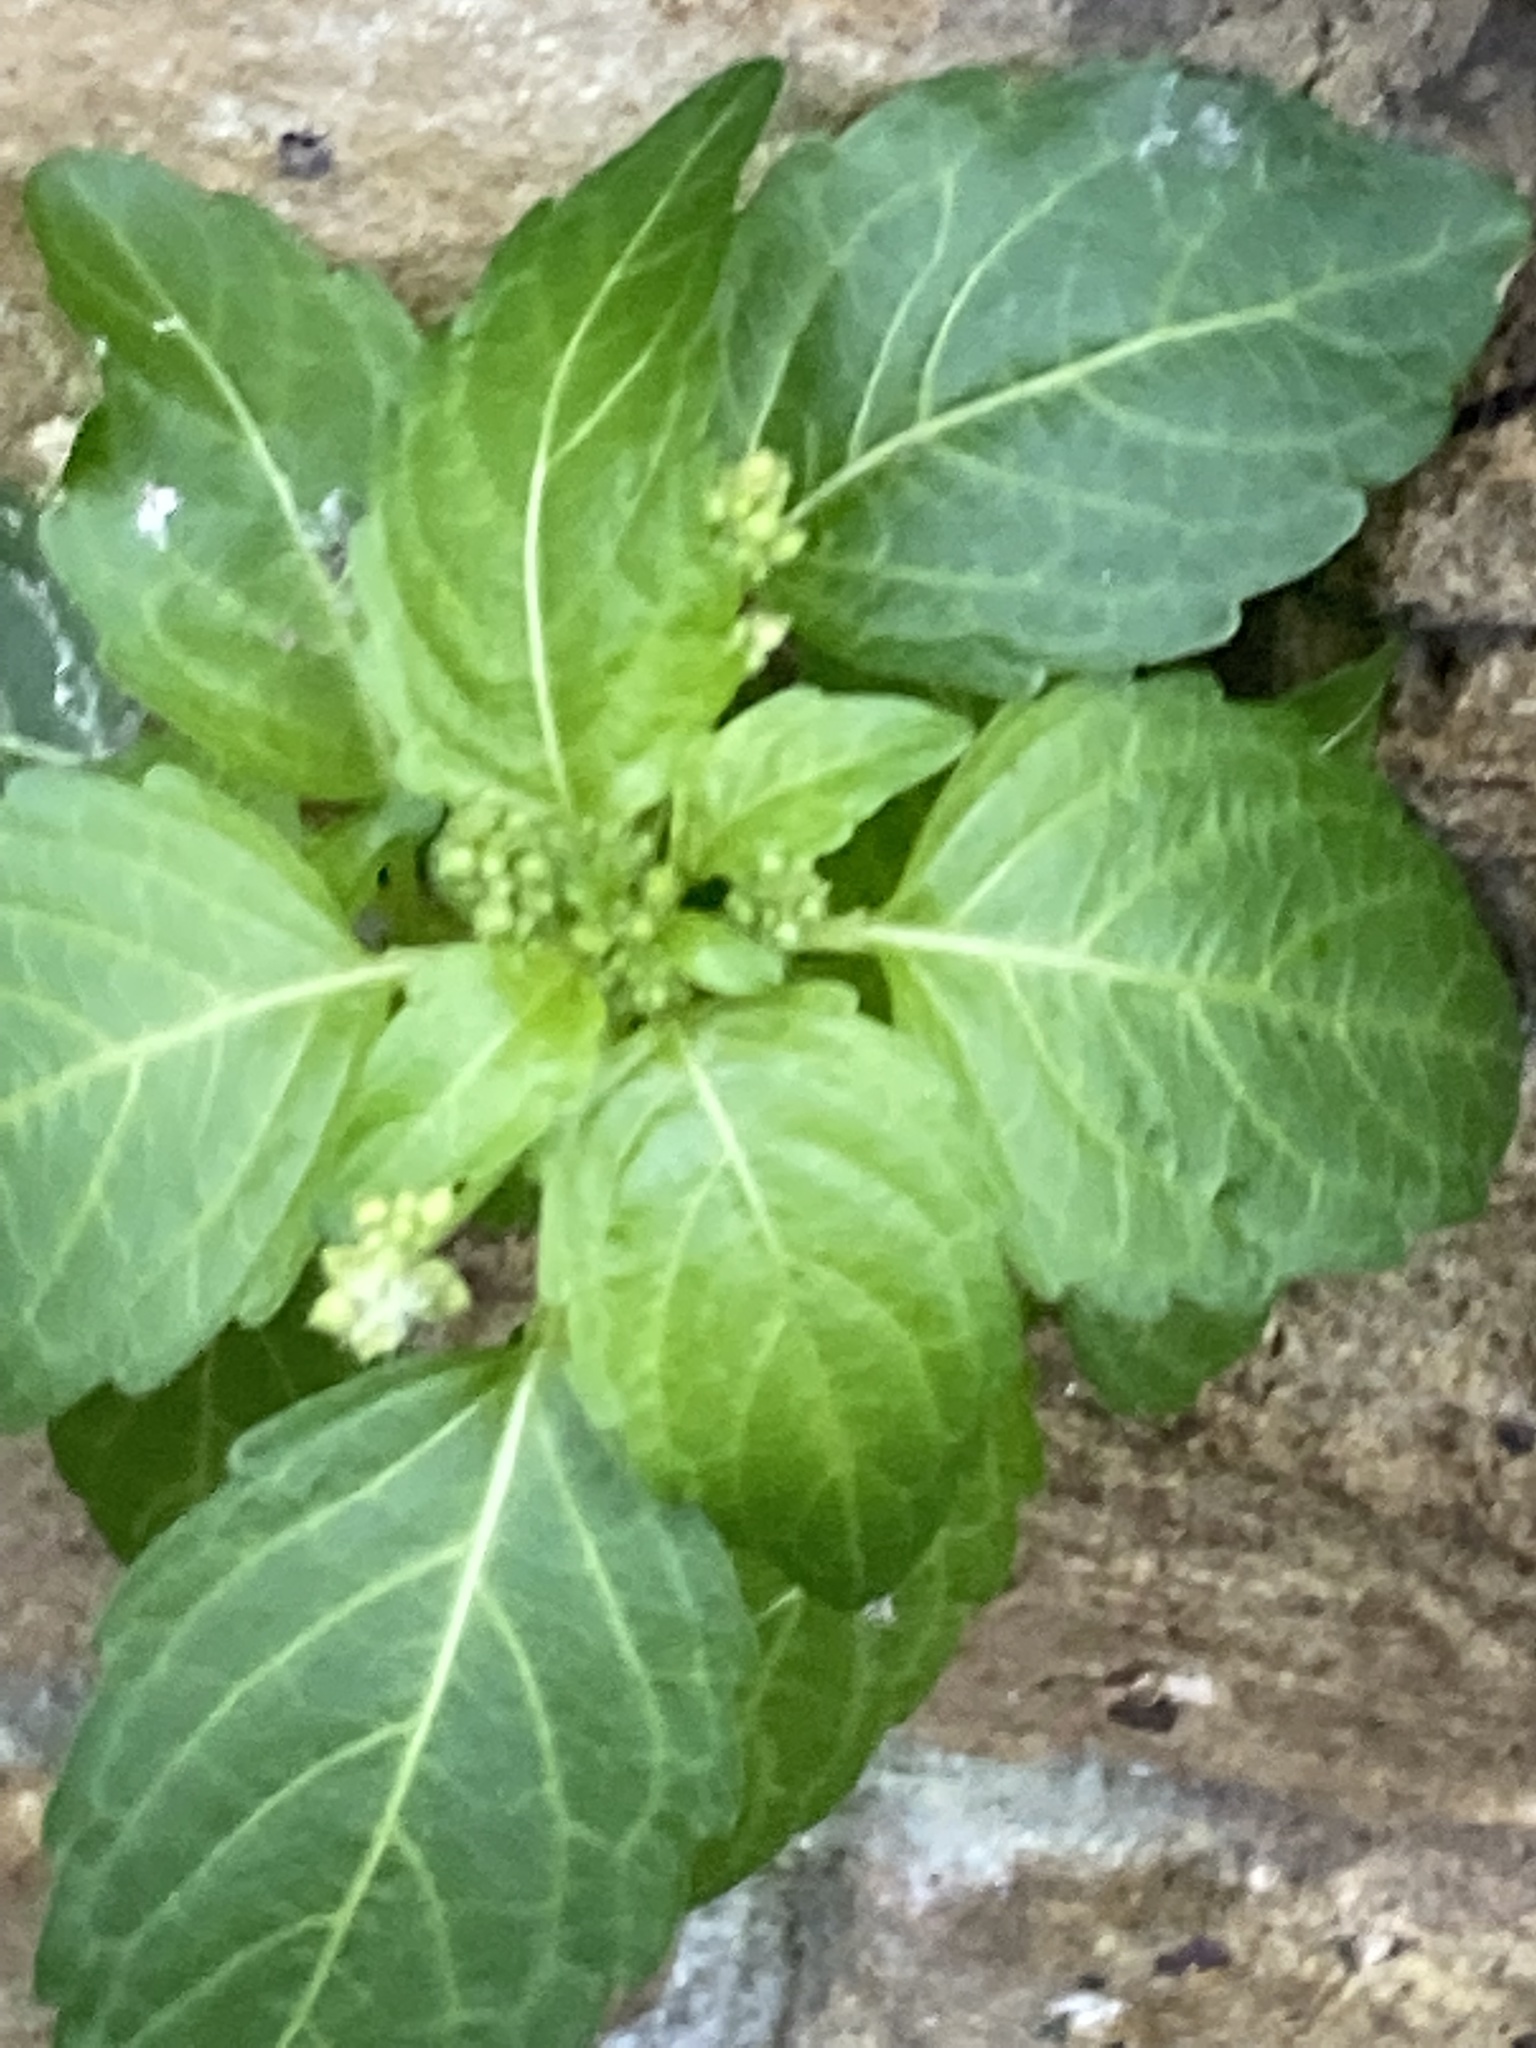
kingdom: Plantae
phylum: Tracheophyta
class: Magnoliopsida
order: Malpighiales
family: Euphorbiaceae
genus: Mercurialis
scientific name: Mercurialis annua
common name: Annual mercury
